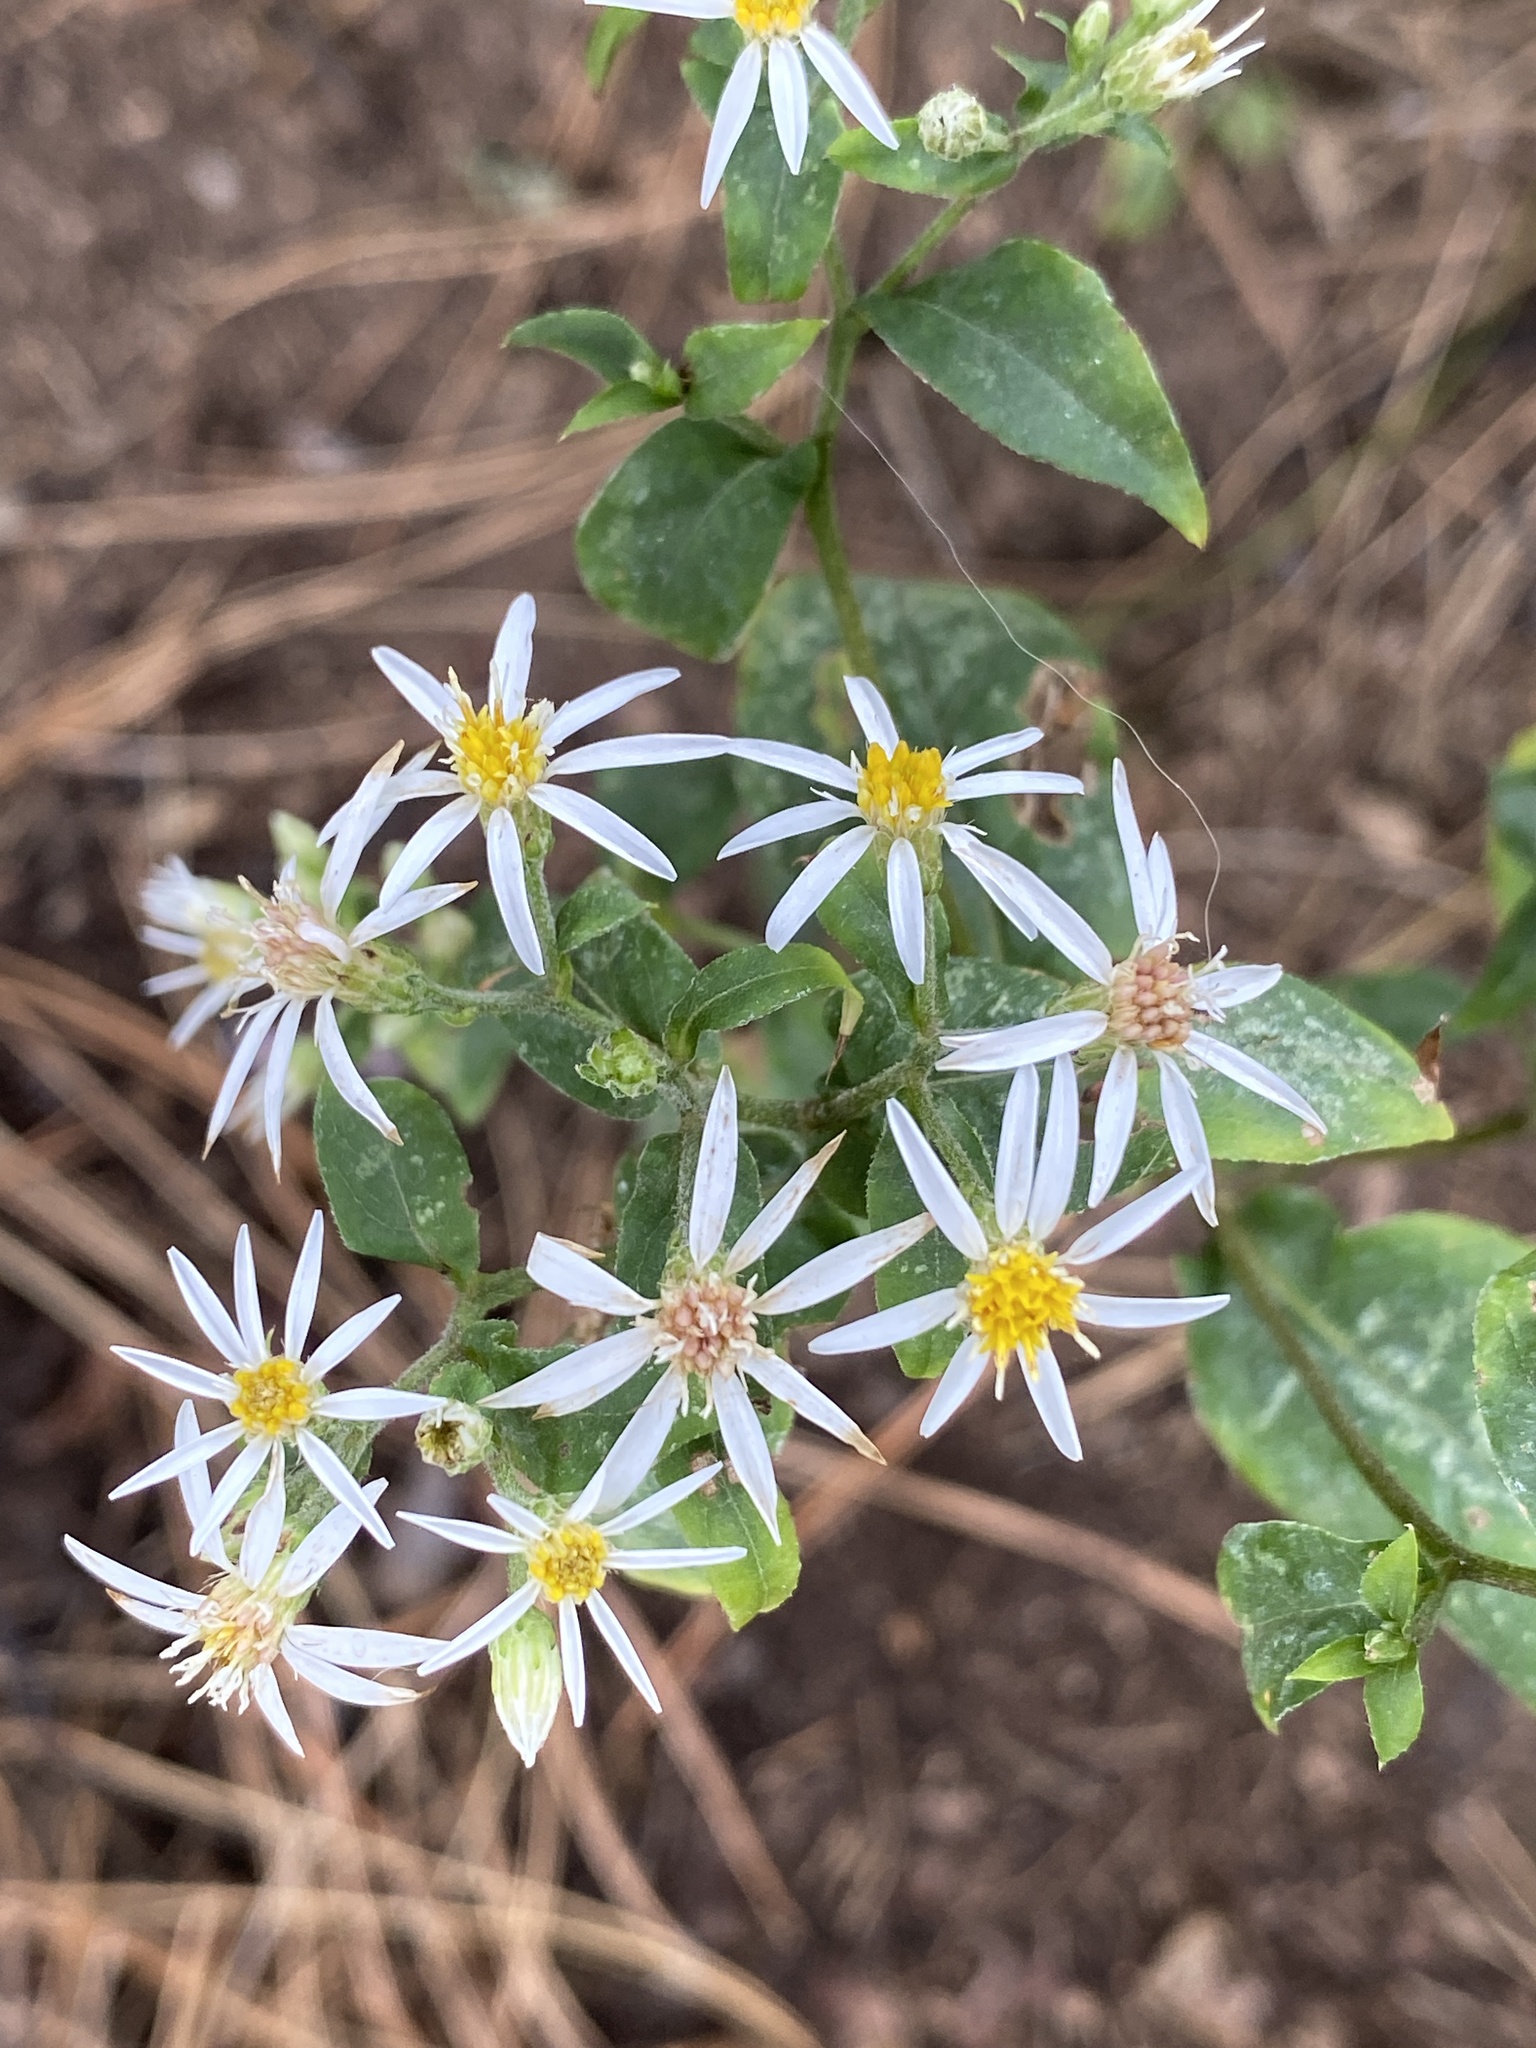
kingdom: Plantae
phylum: Tracheophyta
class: Magnoliopsida
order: Asterales
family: Asteraceae
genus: Eurybia
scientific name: Eurybia divaricata
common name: White wood aster
